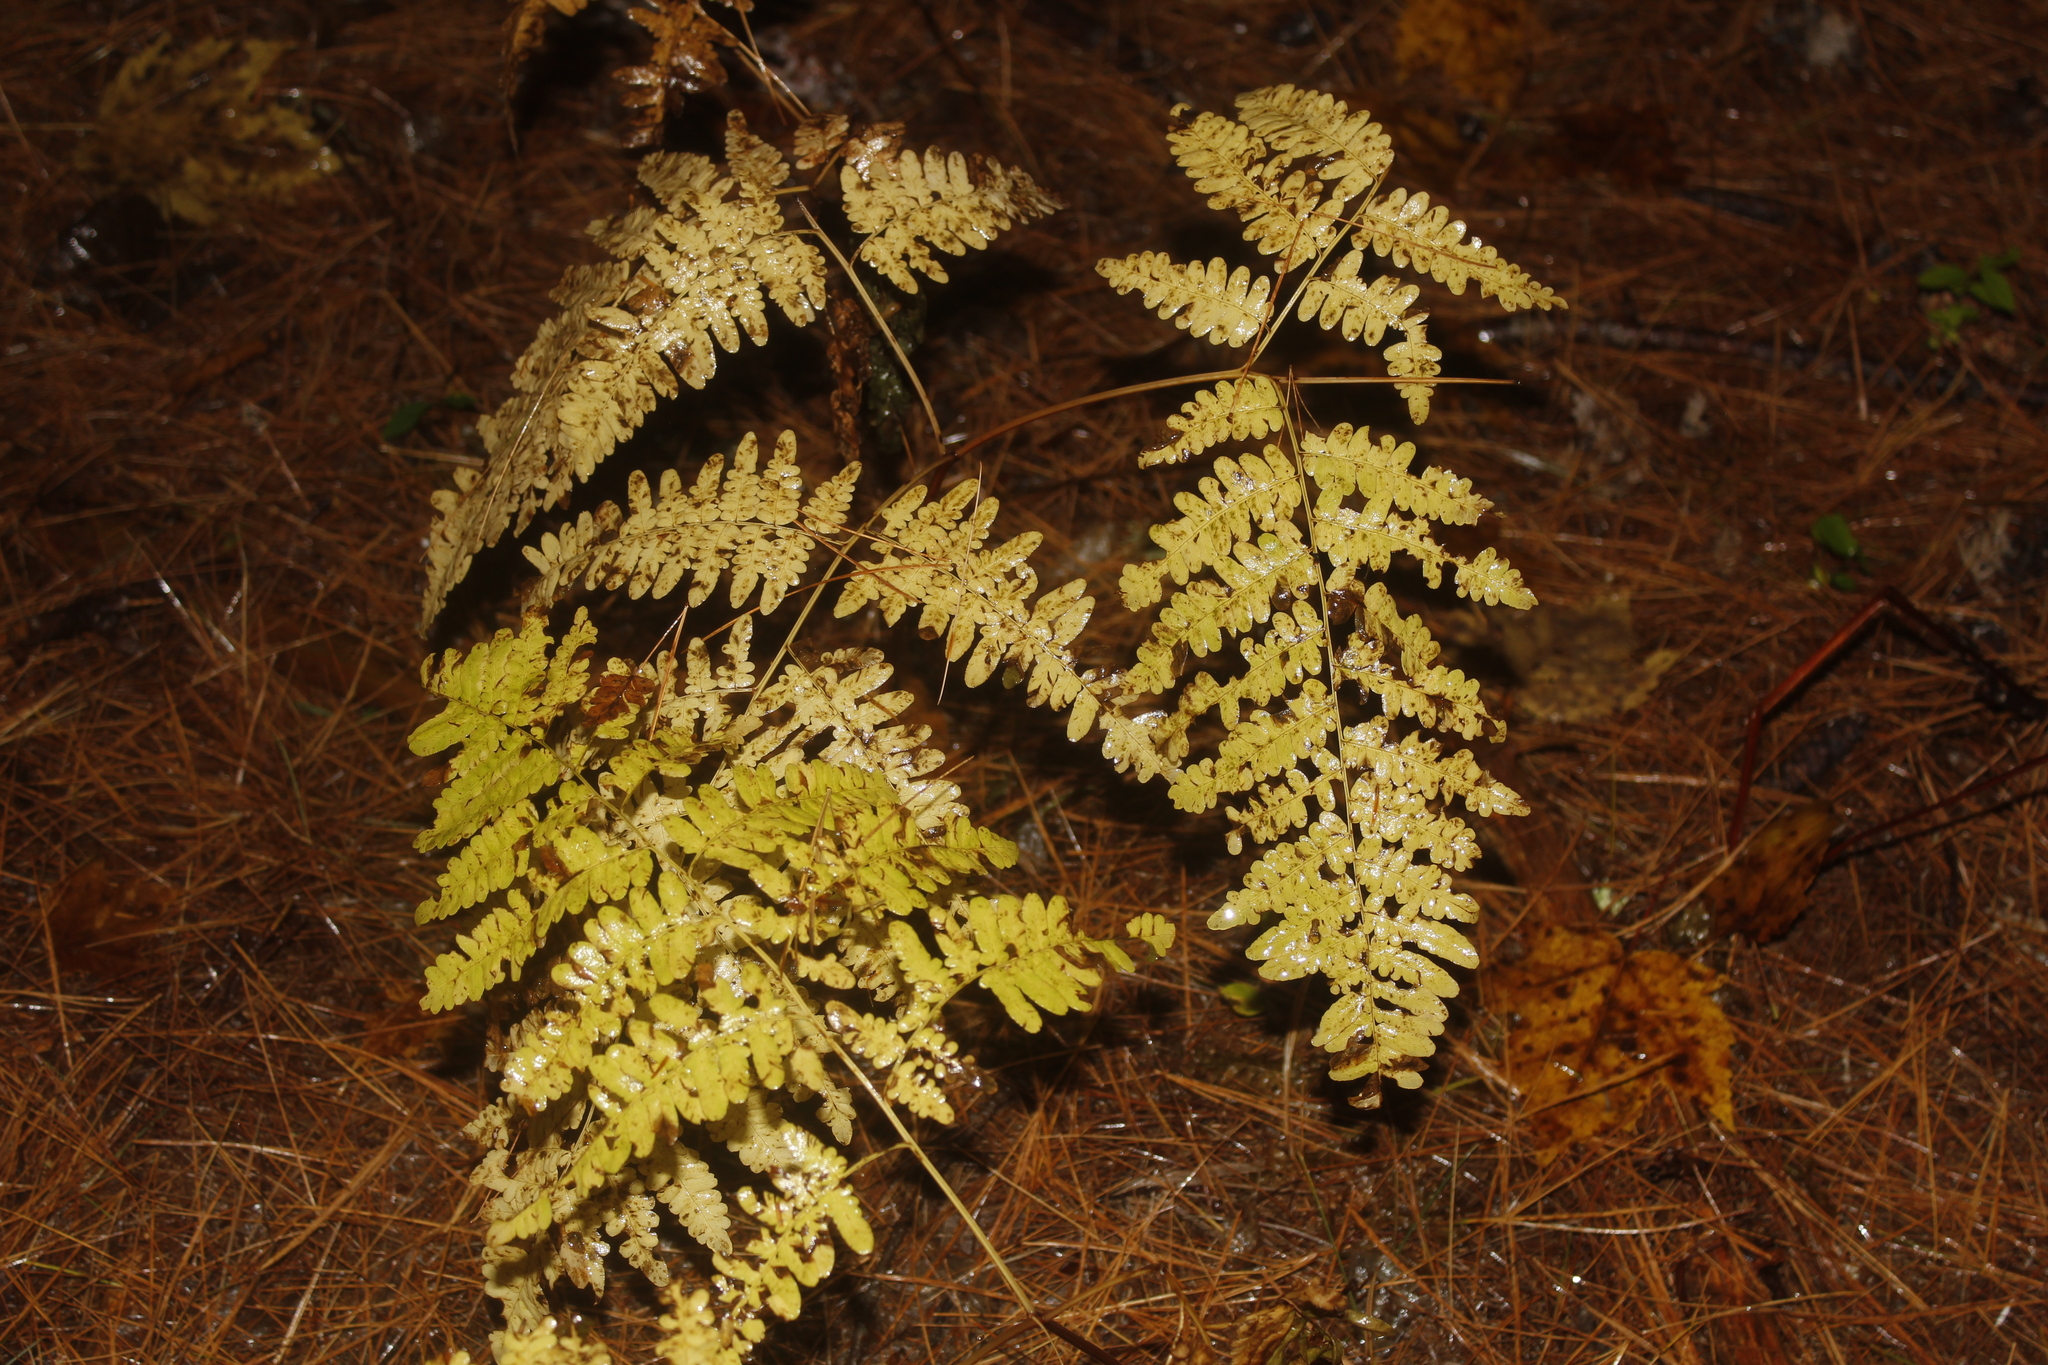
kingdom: Plantae
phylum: Tracheophyta
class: Polypodiopsida
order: Polypodiales
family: Dennstaedtiaceae
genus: Pteridium
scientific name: Pteridium aquilinum
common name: Bracken
